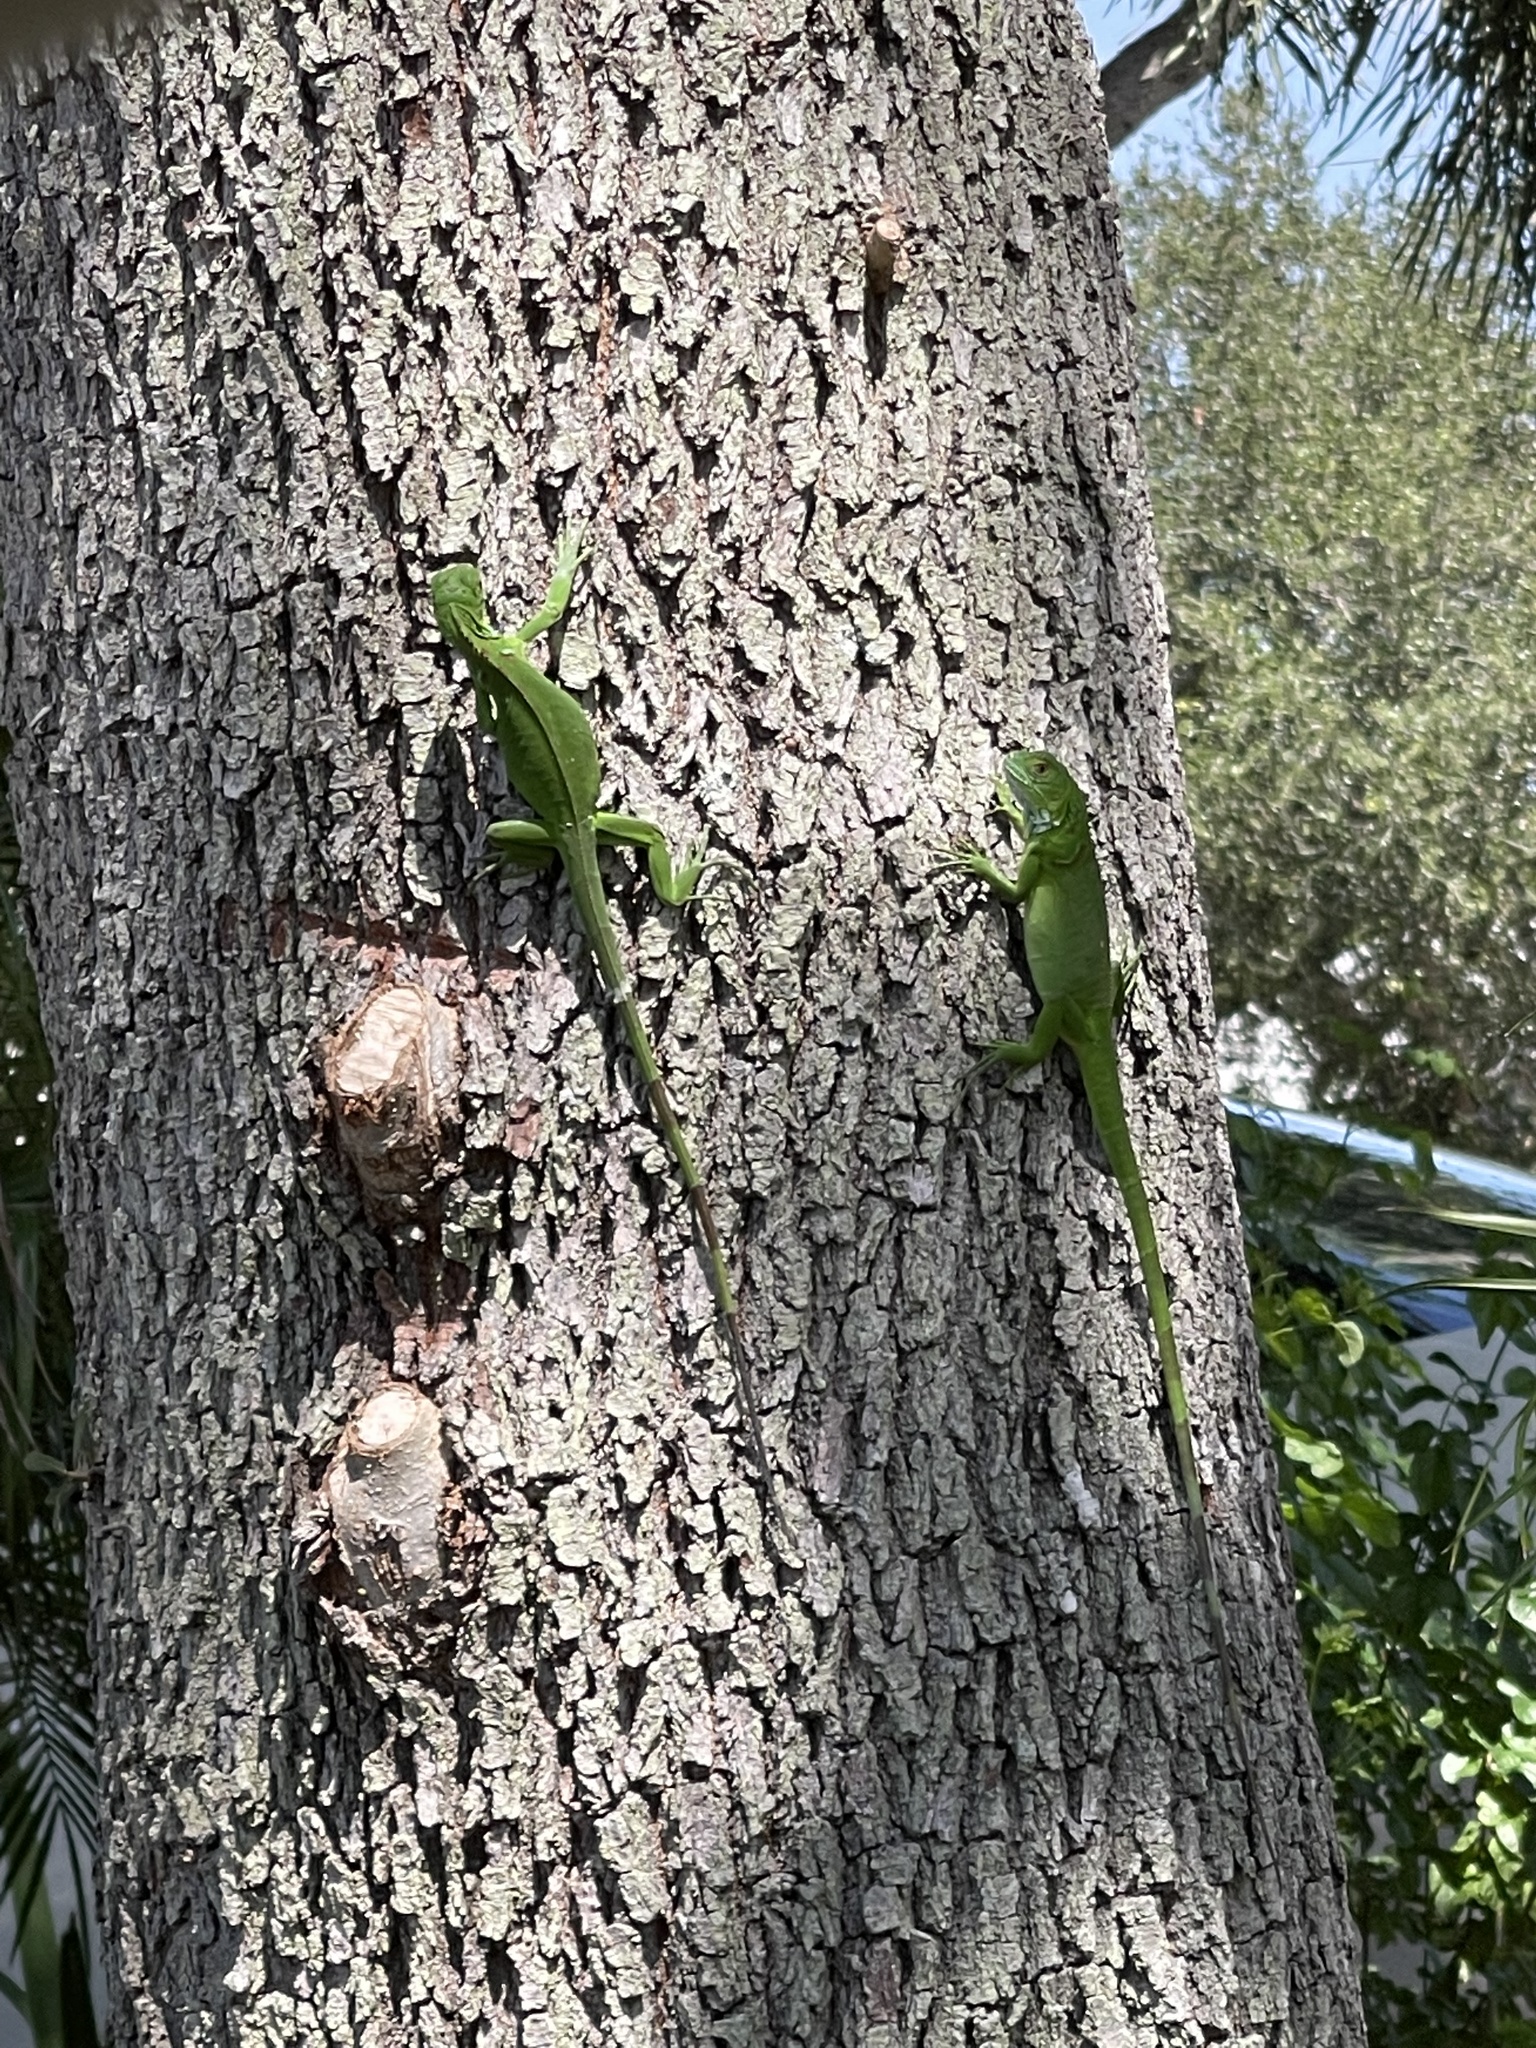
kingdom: Animalia
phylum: Chordata
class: Squamata
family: Iguanidae
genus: Iguana
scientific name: Iguana iguana
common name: Green iguana
